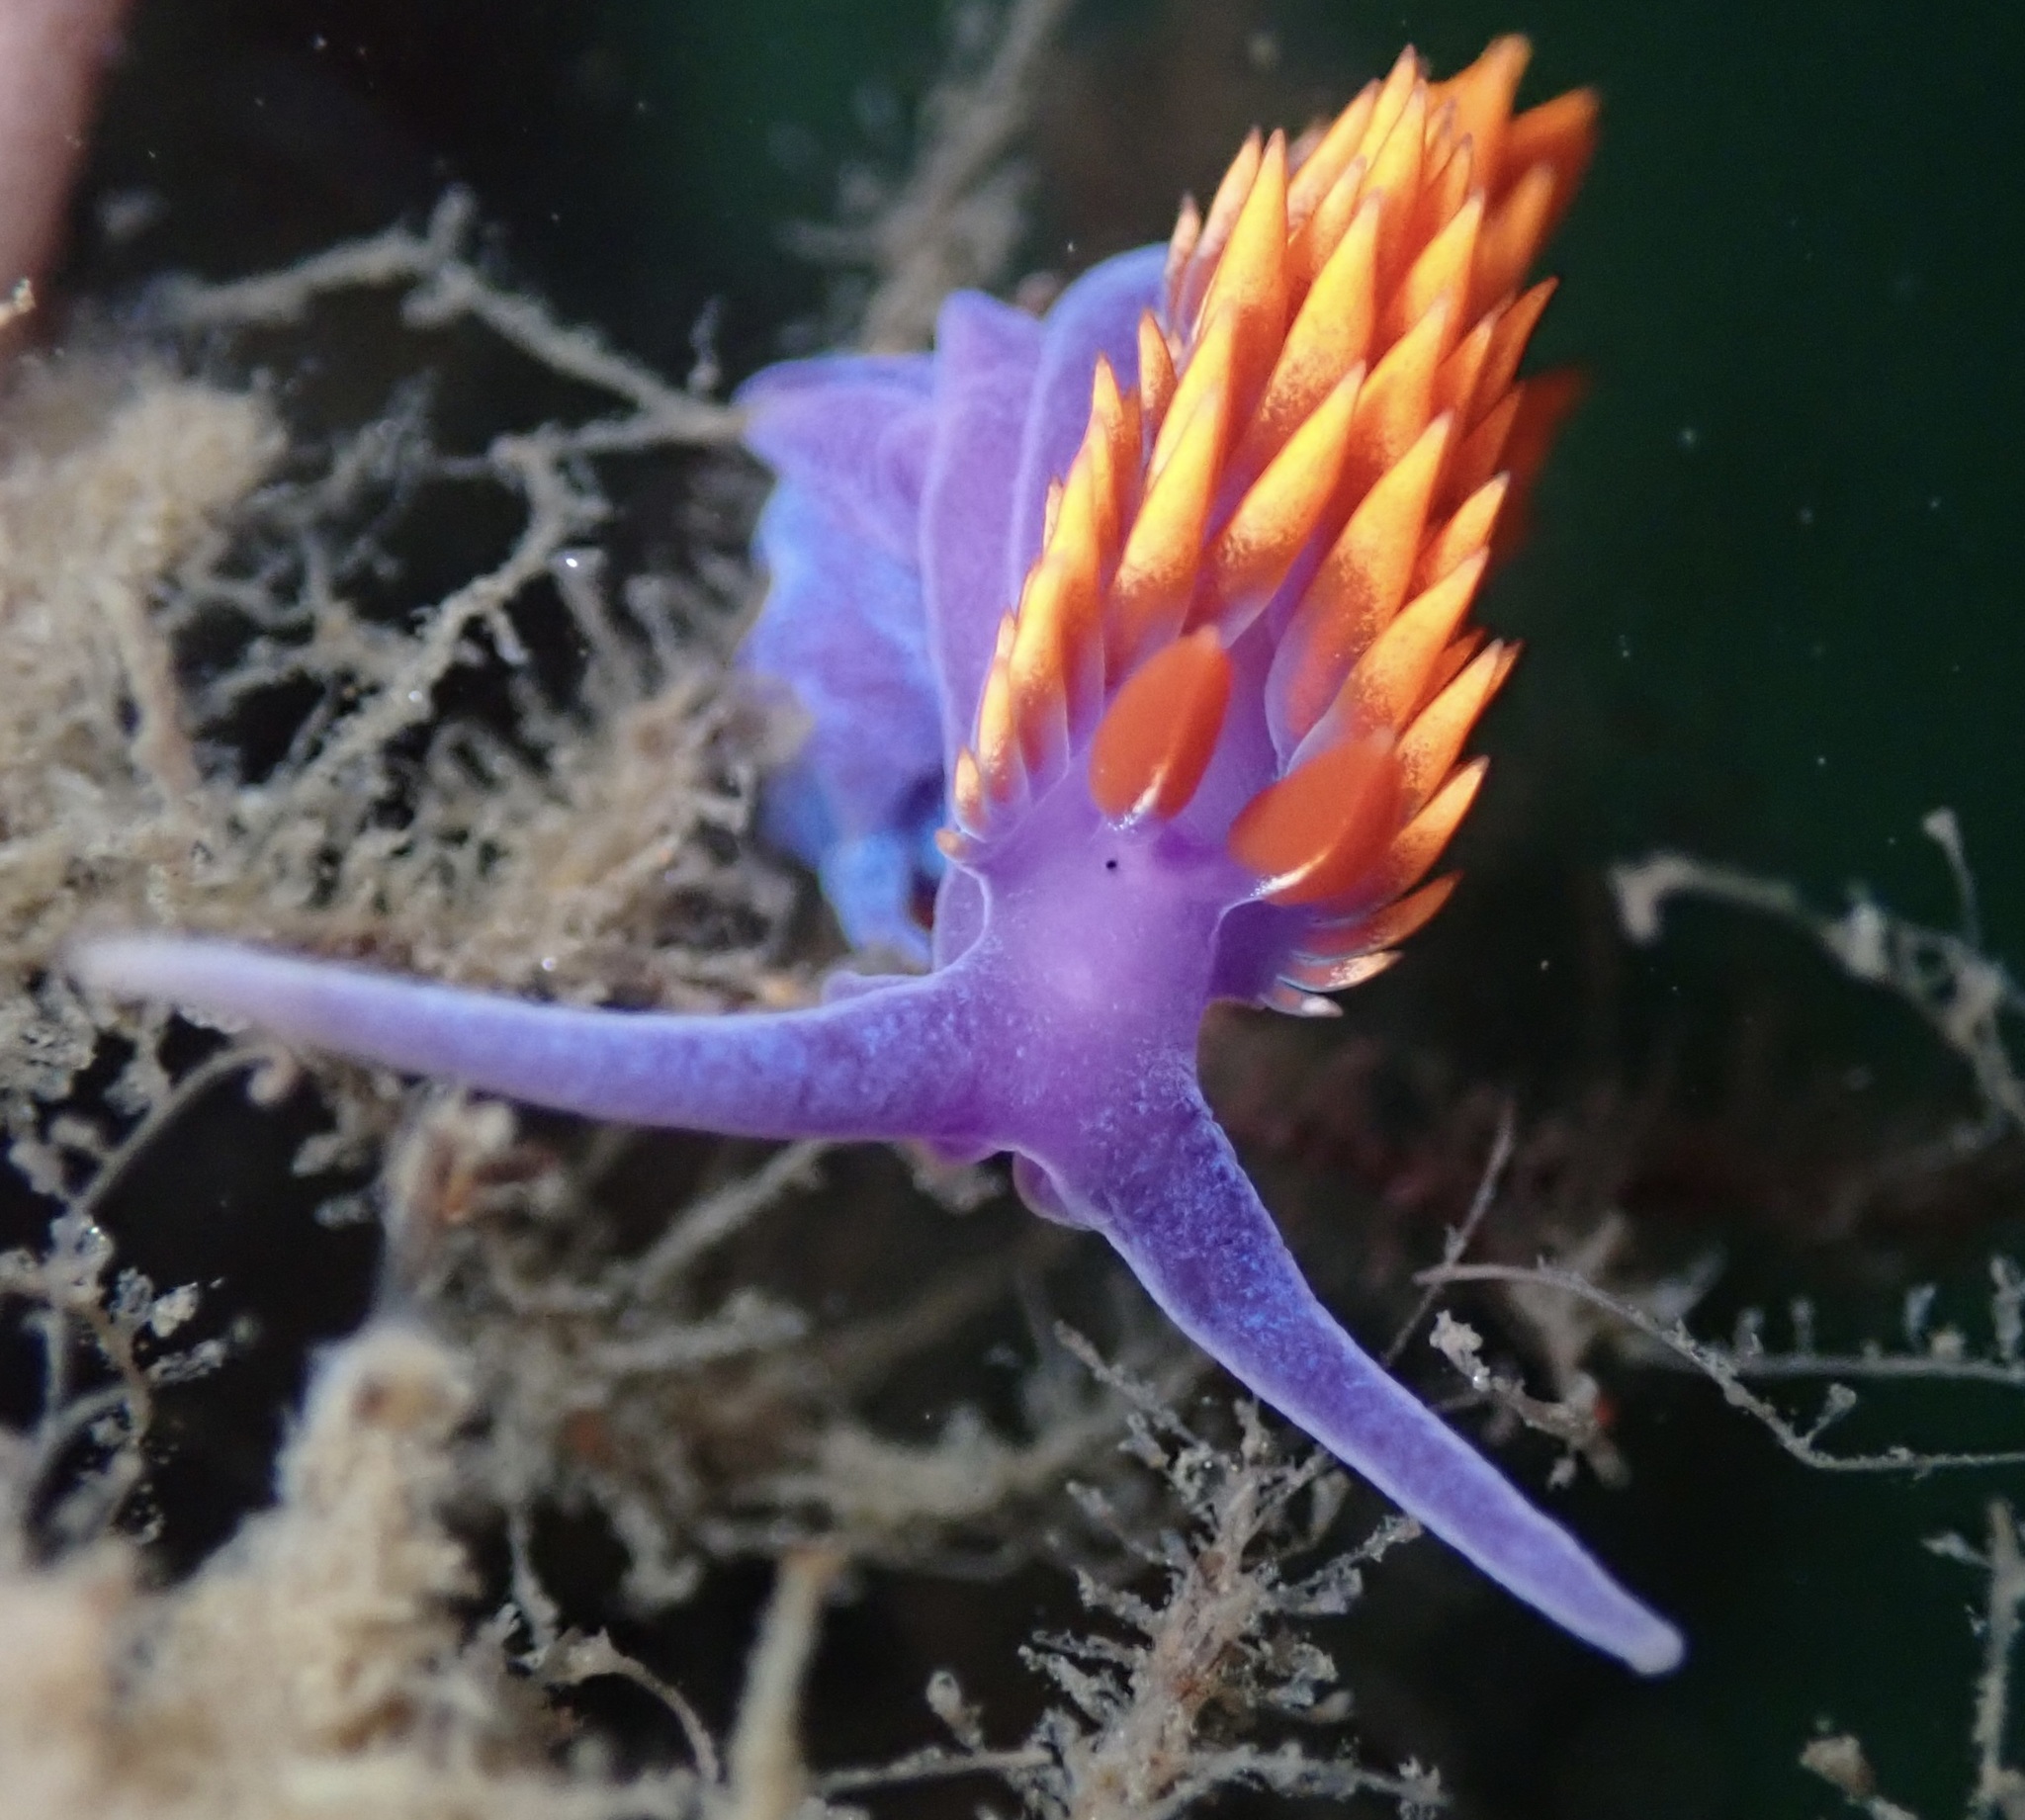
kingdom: Animalia
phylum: Mollusca
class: Gastropoda
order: Nudibranchia
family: Flabellinopsidae
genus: Flabellinopsis
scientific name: Flabellinopsis iodinea
